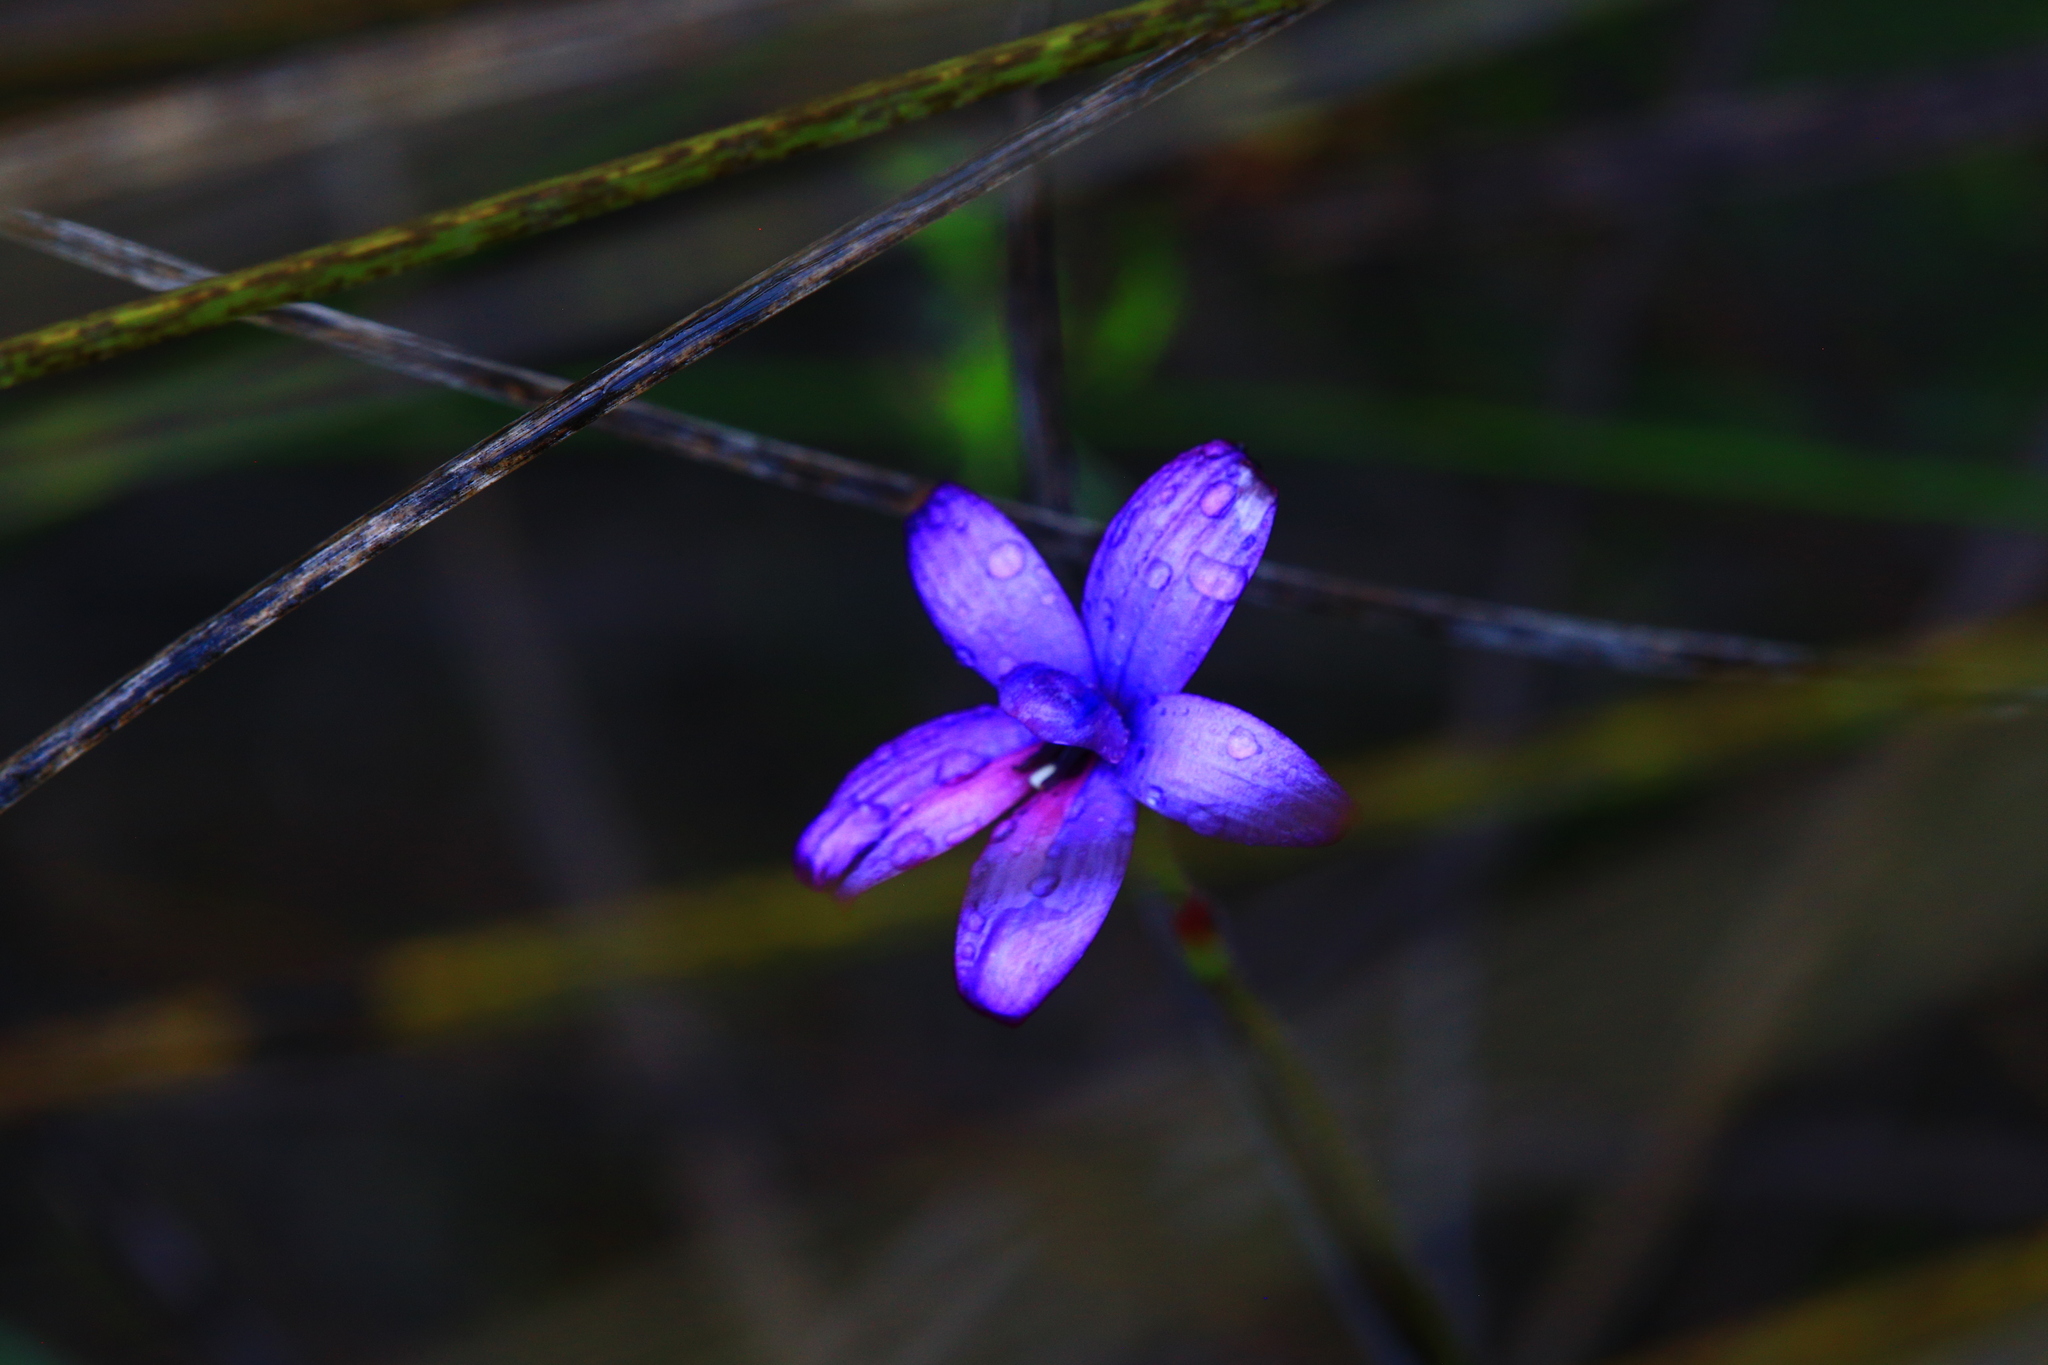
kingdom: Plantae
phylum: Tracheophyta
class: Liliopsida
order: Asparagales
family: Orchidaceae
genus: Caladenia
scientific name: Caladenia brunonis
